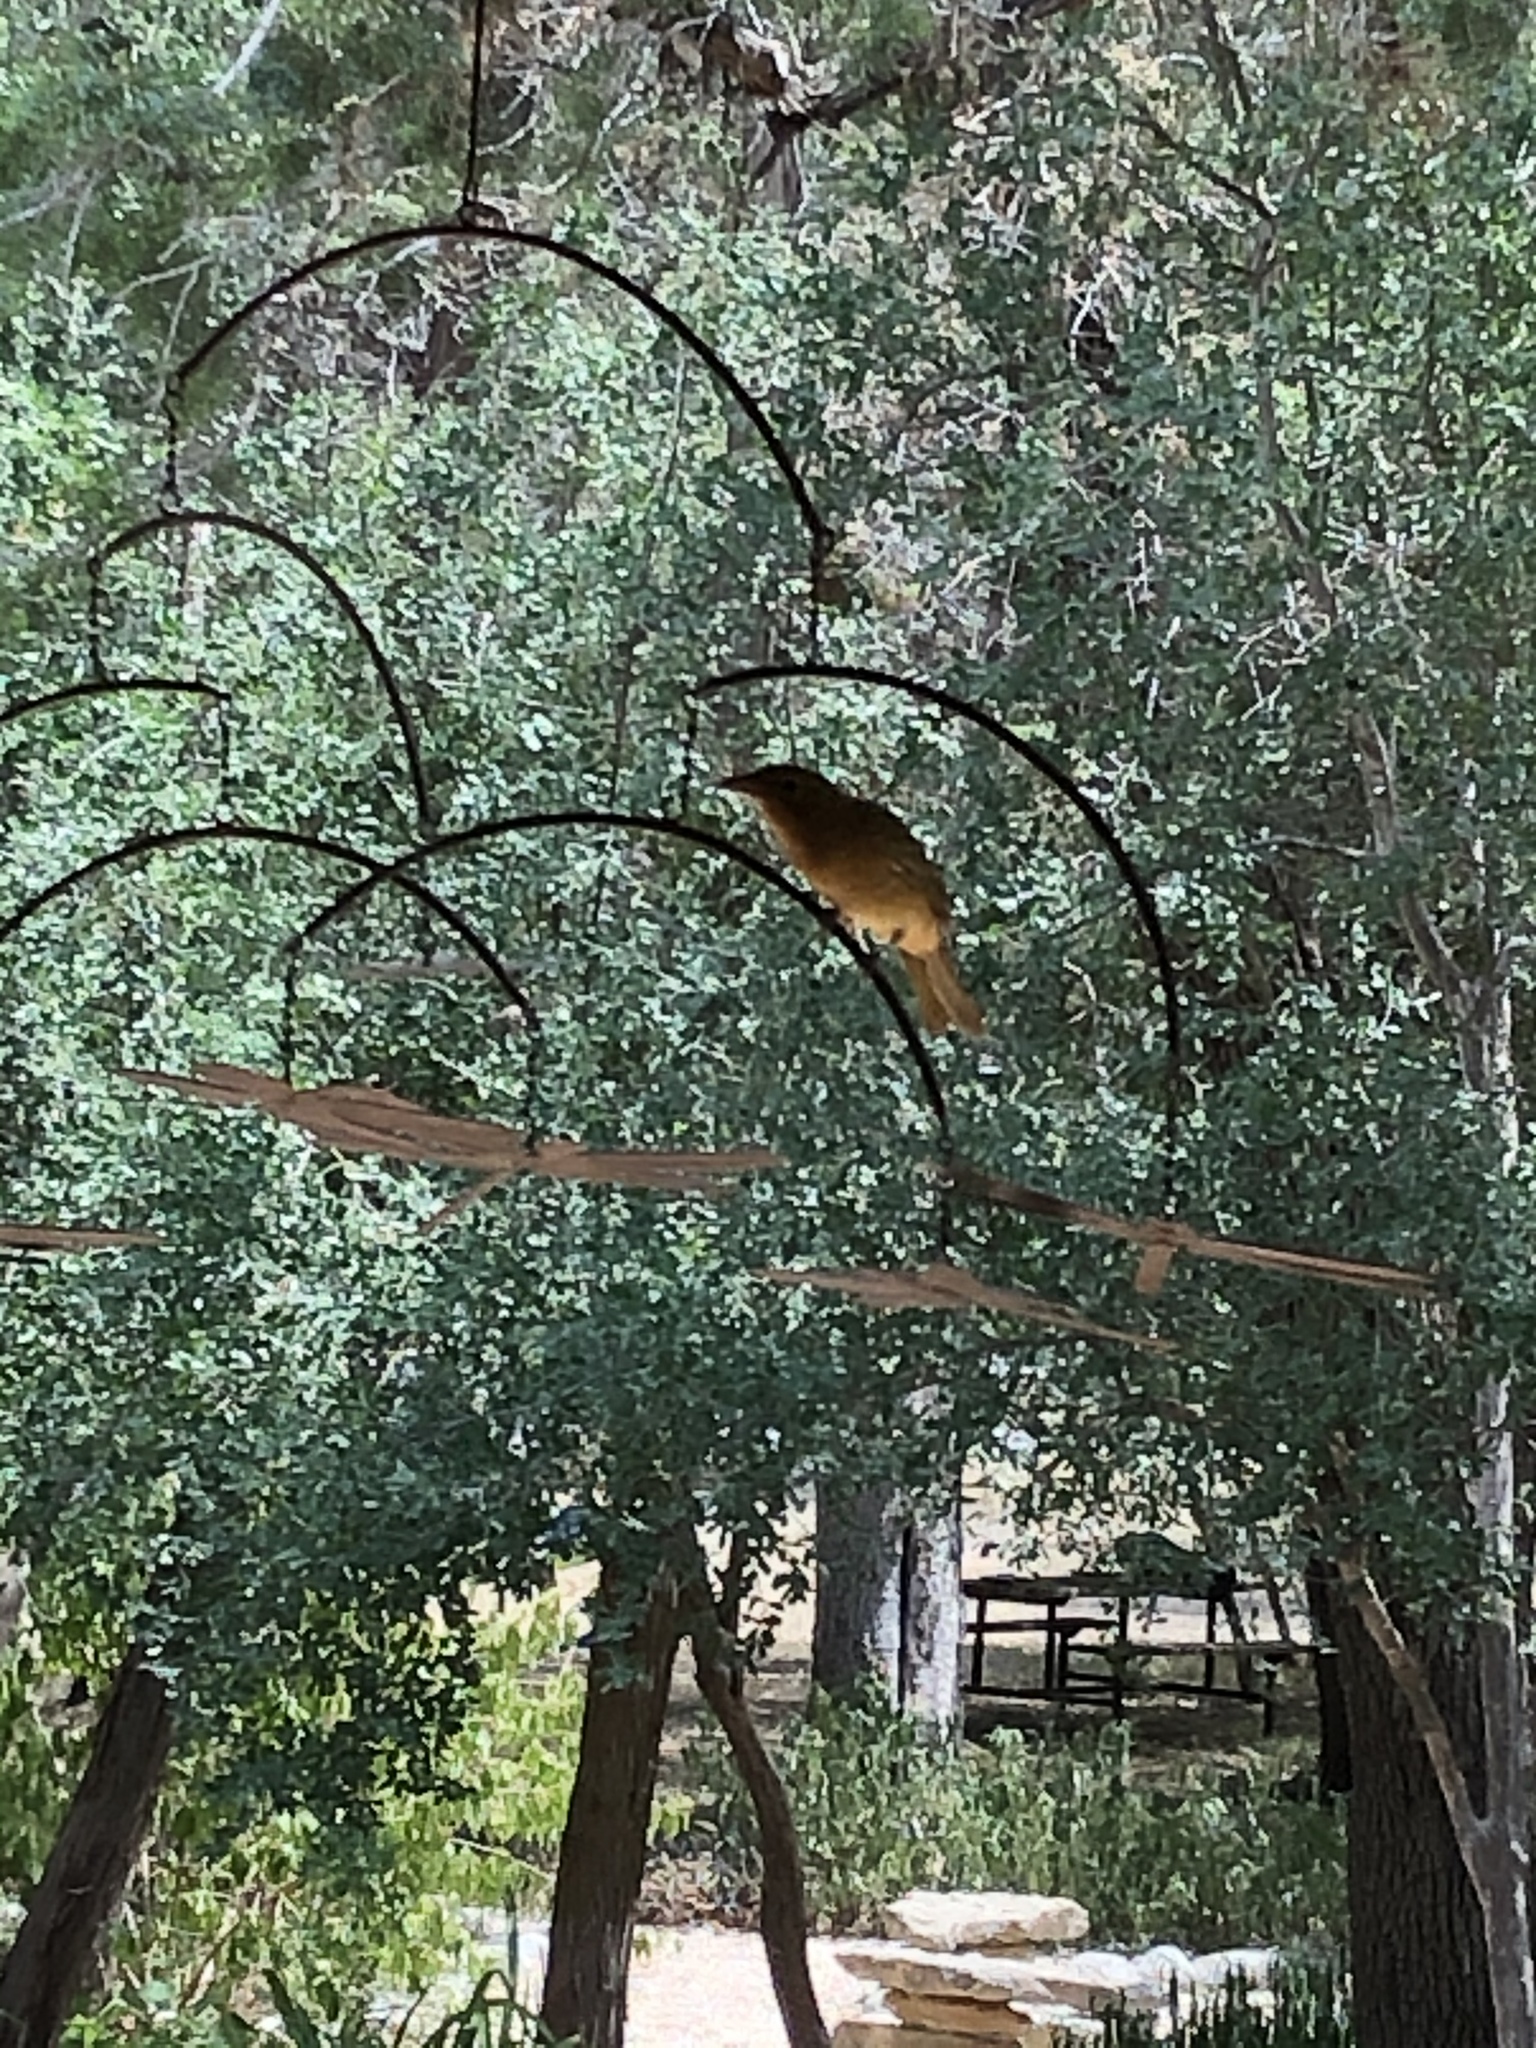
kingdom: Animalia
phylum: Chordata
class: Aves
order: Passeriformes
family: Cardinalidae
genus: Piranga
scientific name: Piranga ludoviciana
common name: Western tanager
